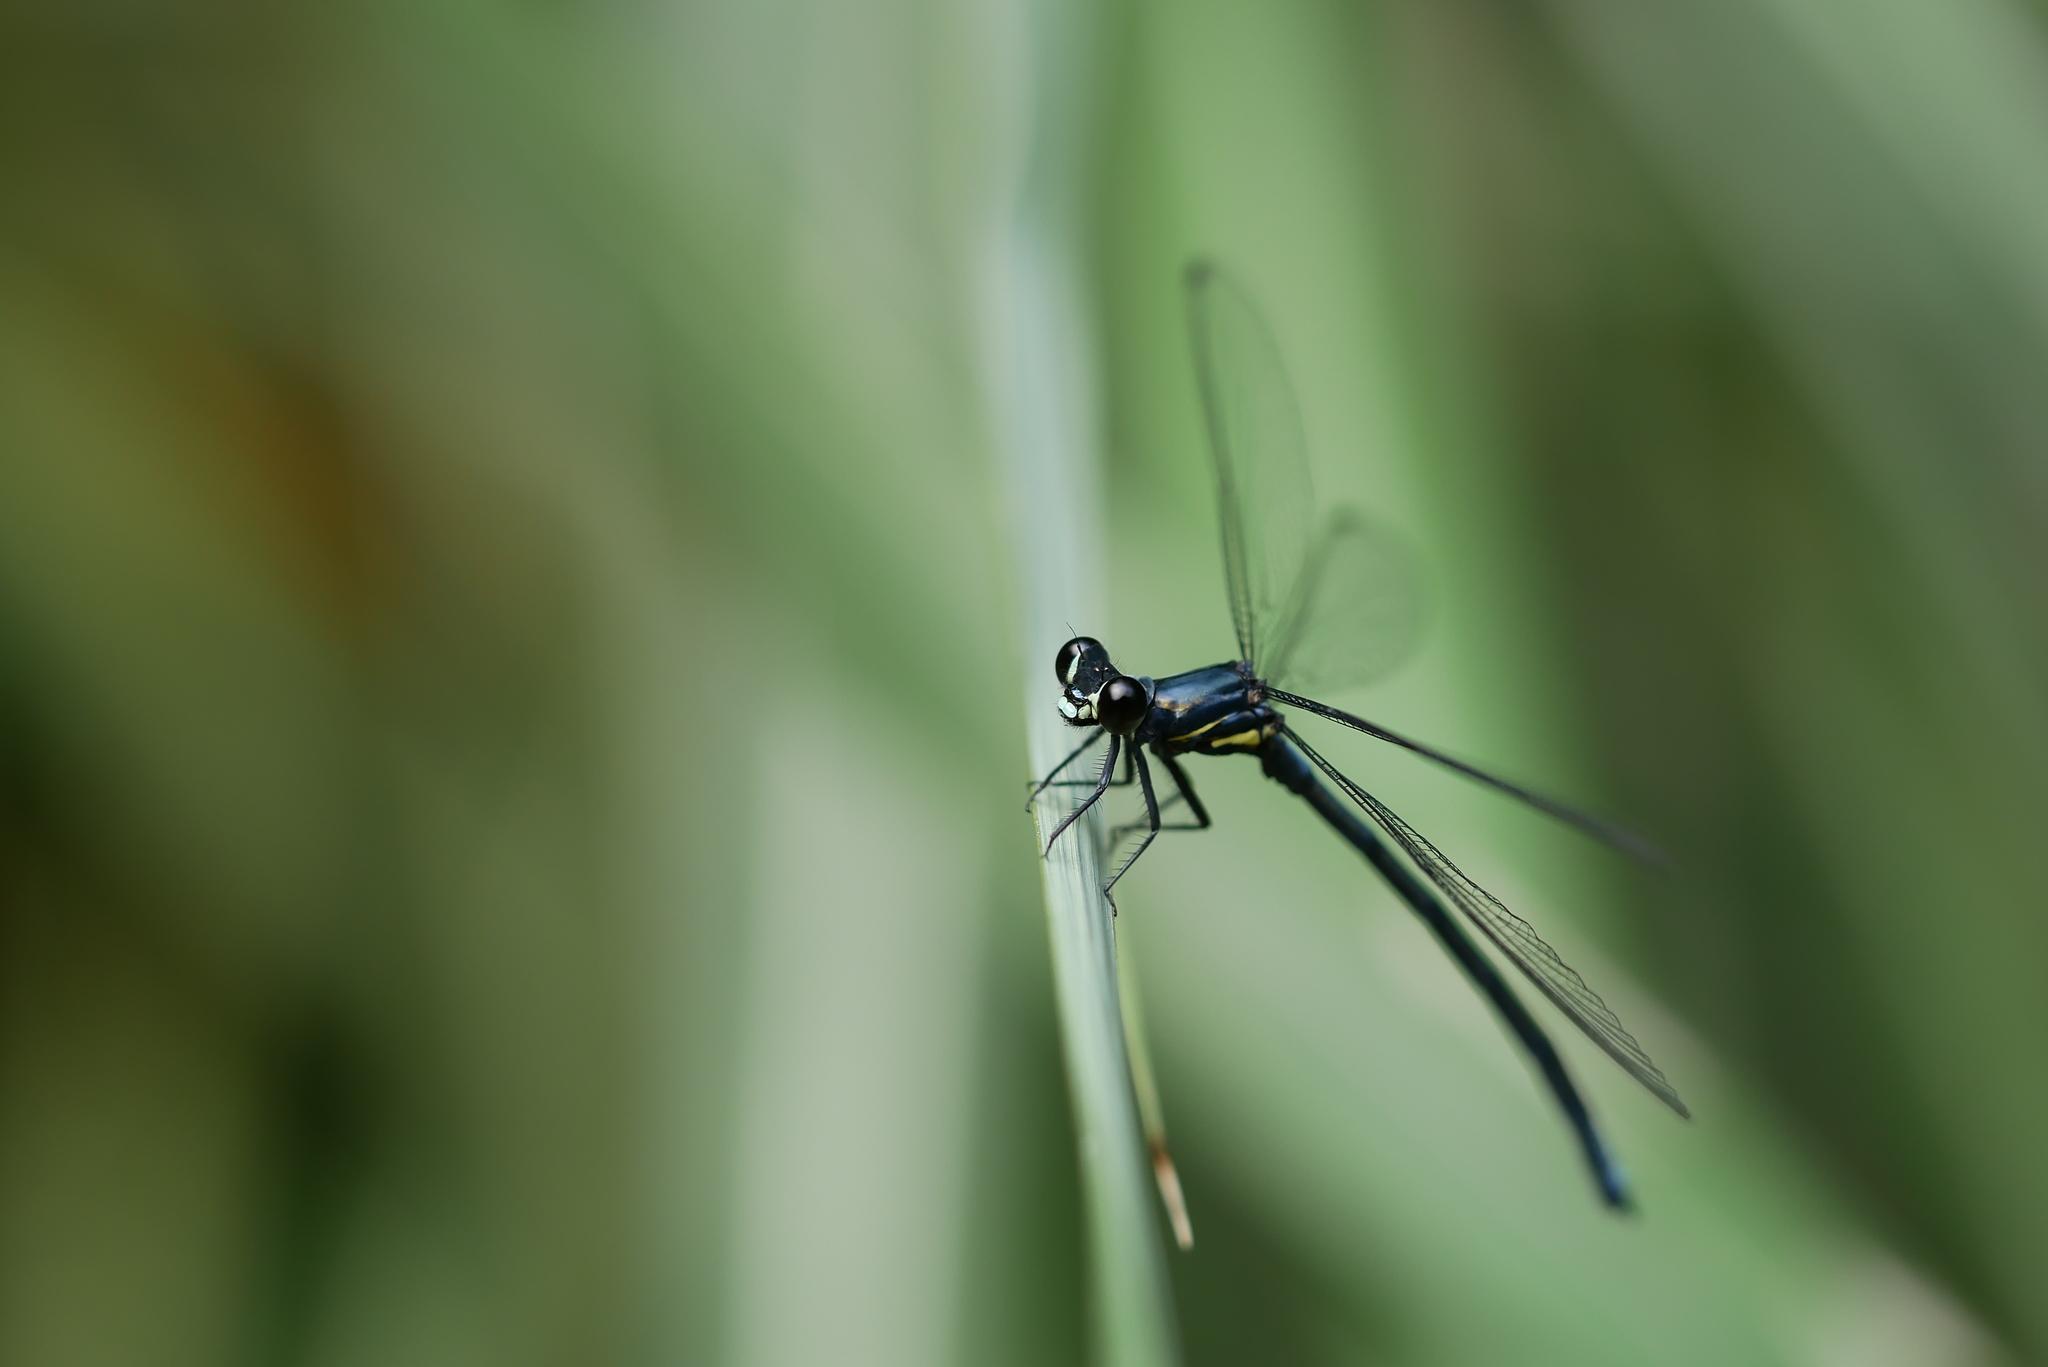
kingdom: Animalia
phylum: Arthropoda
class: Insecta
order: Odonata
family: Euphaeidae
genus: Bayadera
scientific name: Bayadera brevicauda
